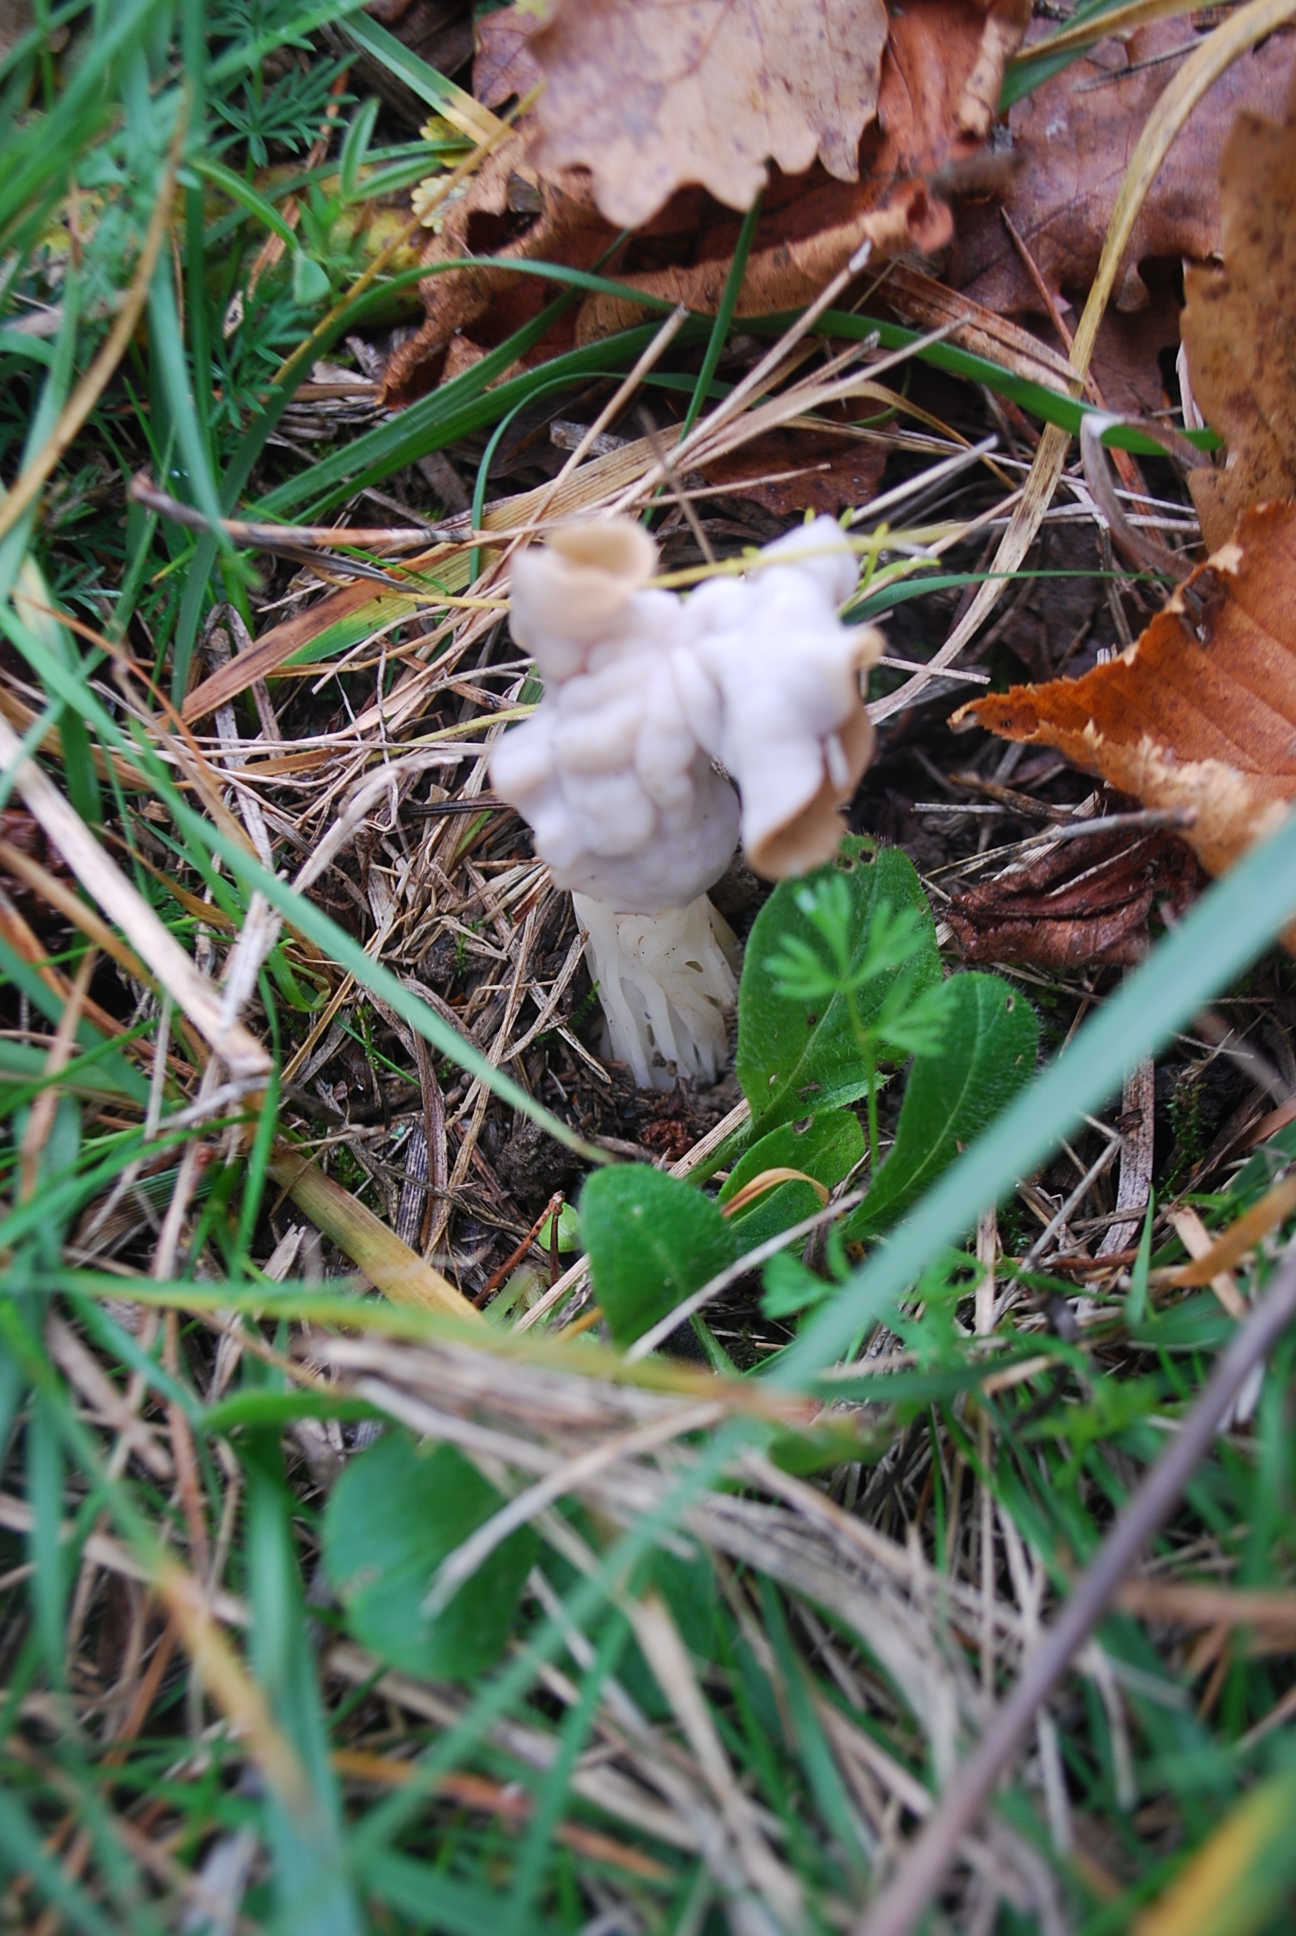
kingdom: Fungi
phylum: Ascomycota
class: Pezizomycetes
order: Pezizales
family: Helvellaceae
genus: Helvella
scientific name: Helvella crispa
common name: White saddle
